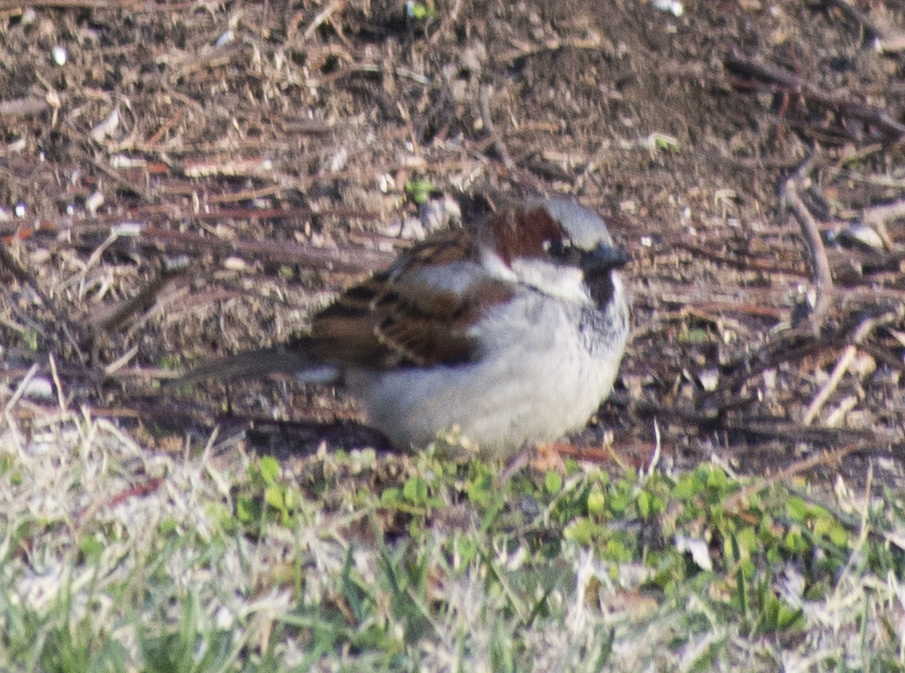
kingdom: Animalia
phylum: Chordata
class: Aves
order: Passeriformes
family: Passeridae
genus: Passer
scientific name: Passer domesticus
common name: House sparrow
